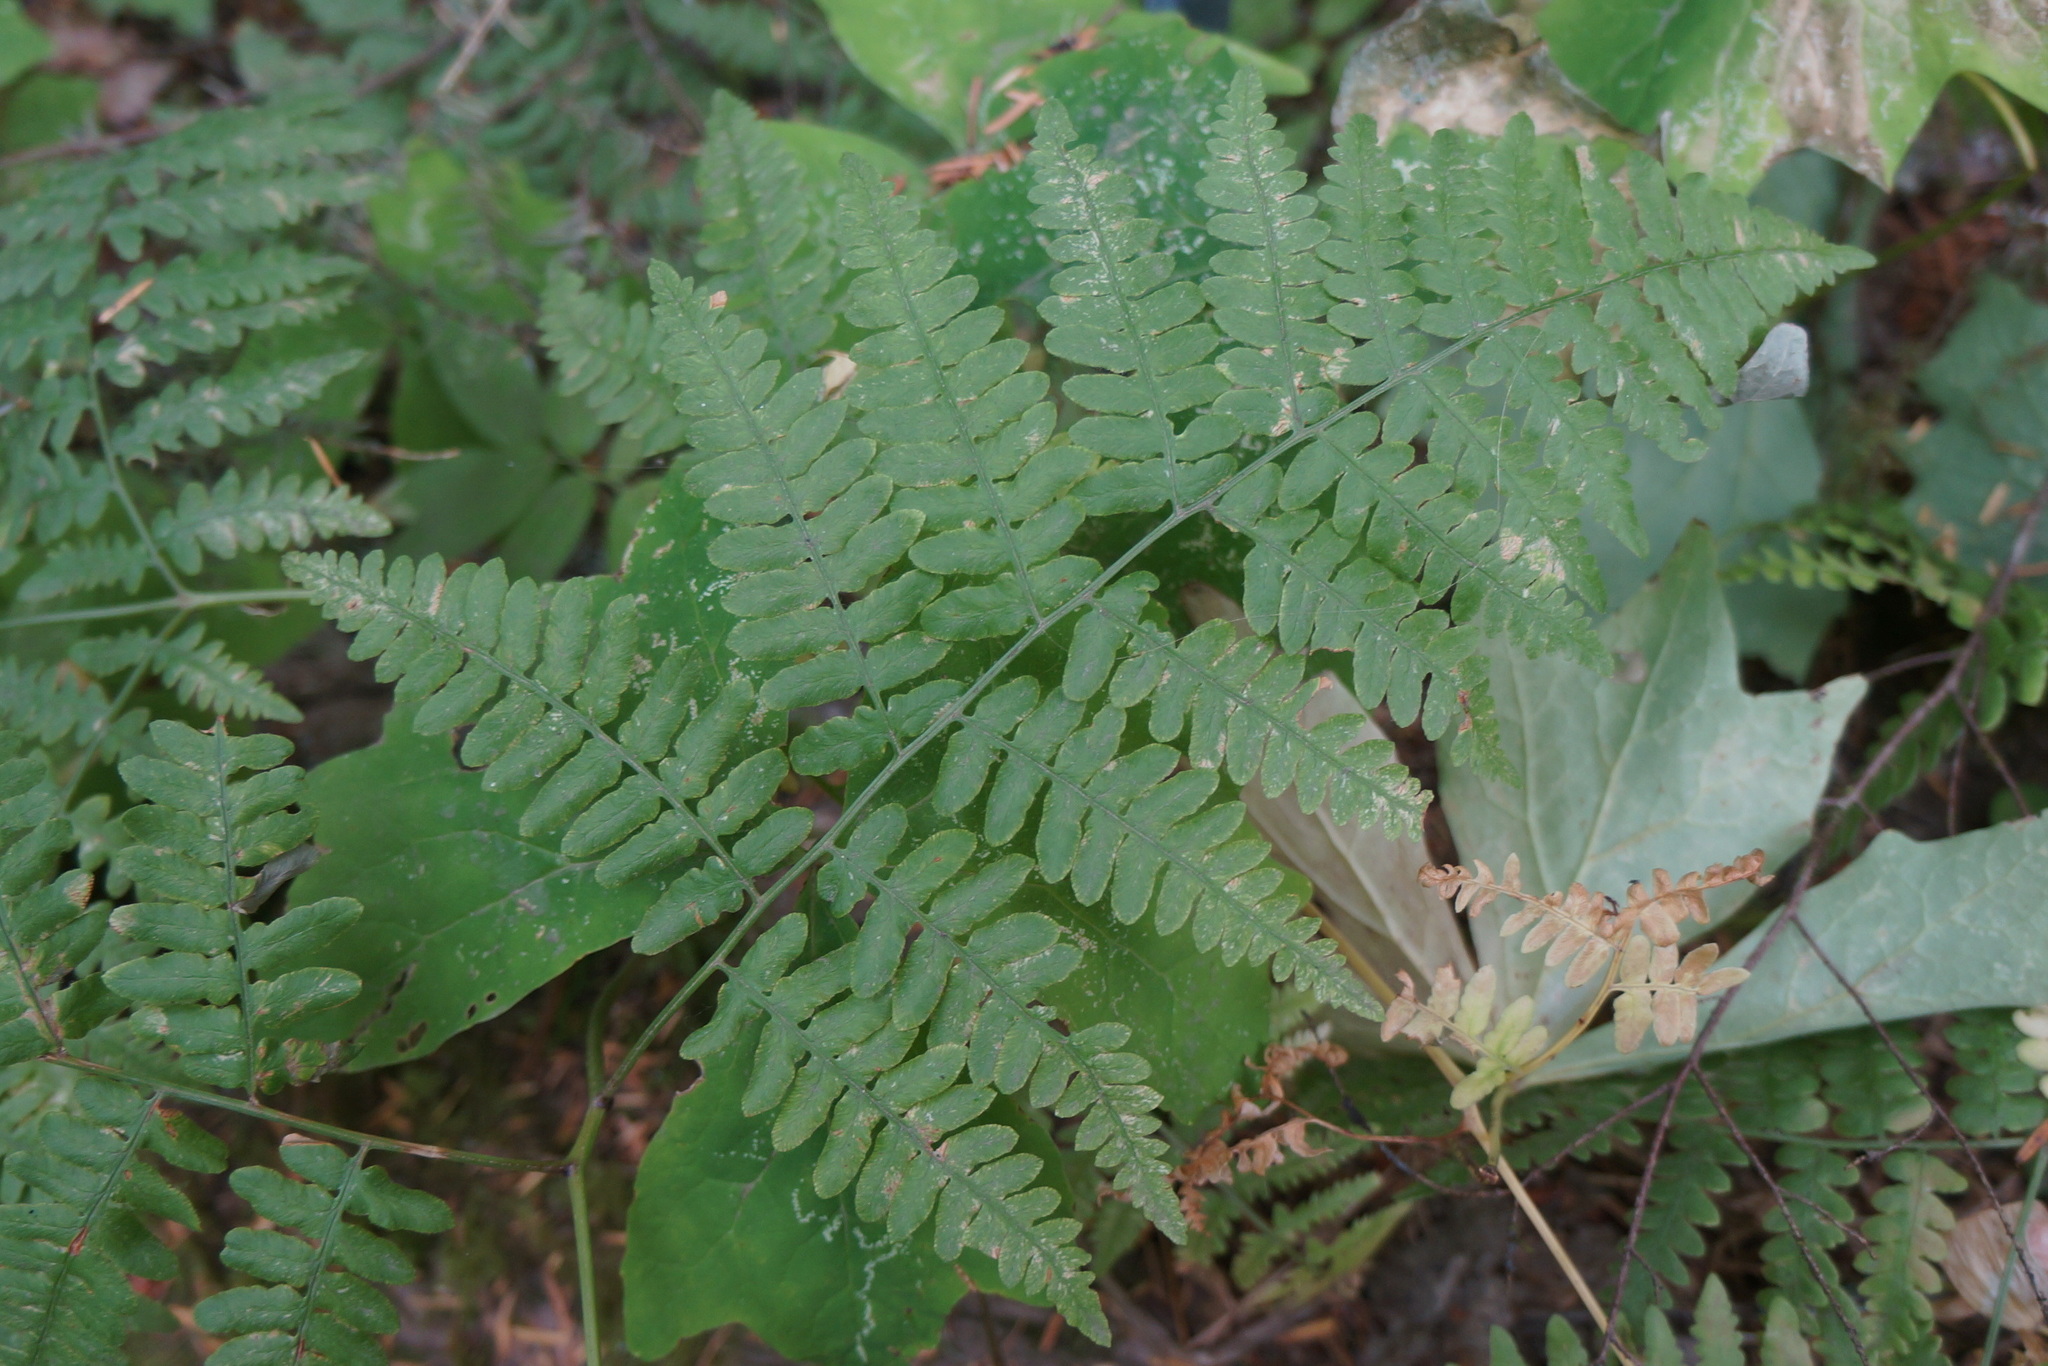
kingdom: Plantae
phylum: Tracheophyta
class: Polypodiopsida
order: Polypodiales
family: Dennstaedtiaceae
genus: Pteridium
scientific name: Pteridium aquilinum
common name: Bracken
